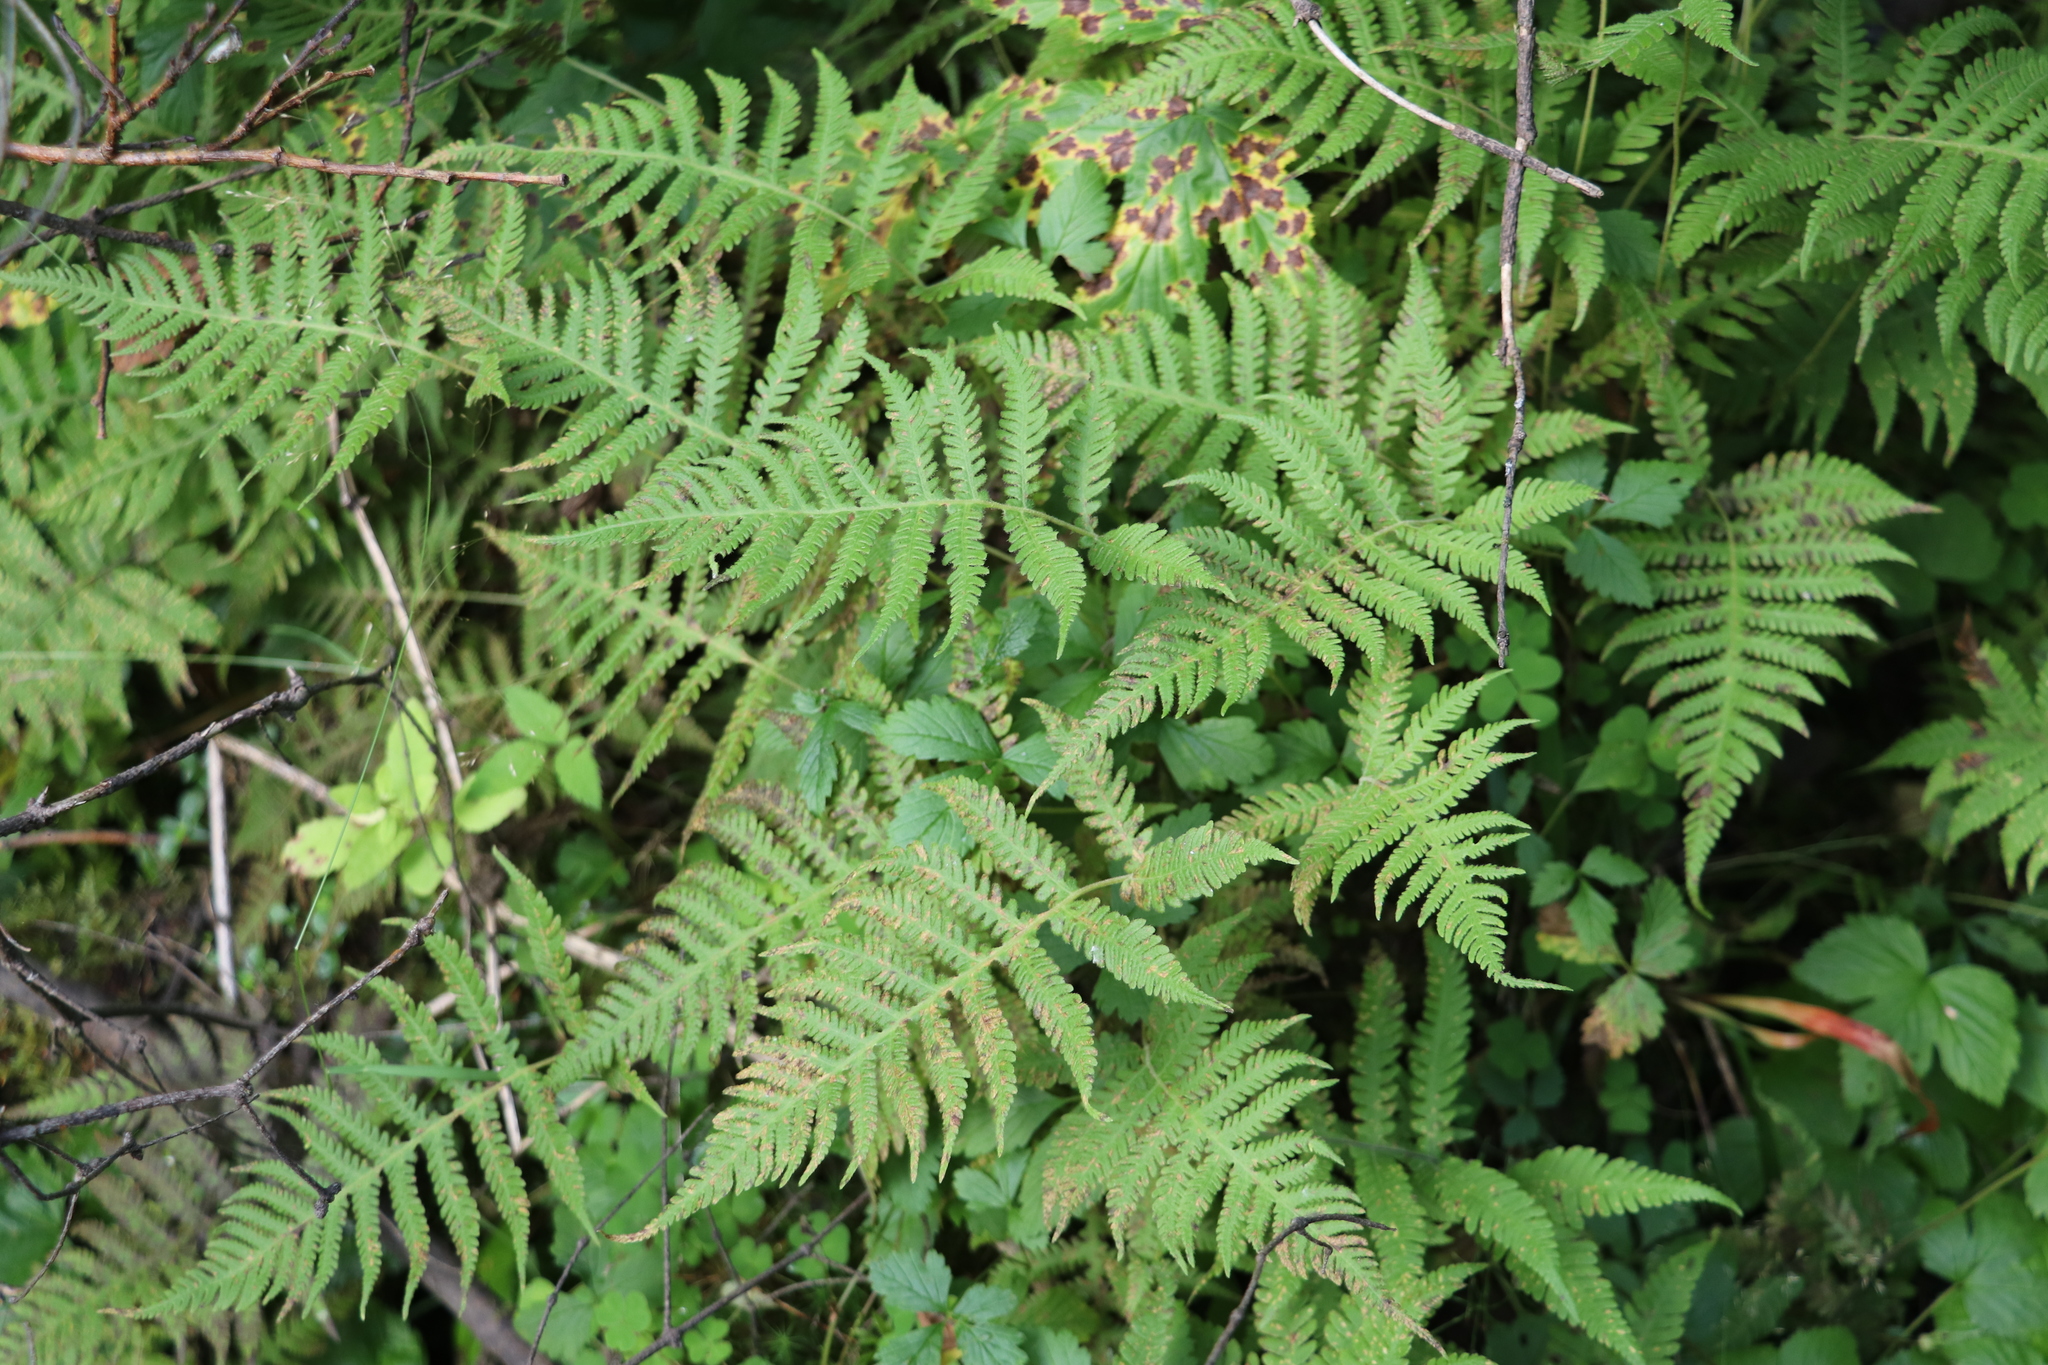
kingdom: Plantae
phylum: Tracheophyta
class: Polypodiopsida
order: Polypodiales
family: Thelypteridaceae
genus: Phegopteris
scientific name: Phegopteris connectilis
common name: Beech fern
